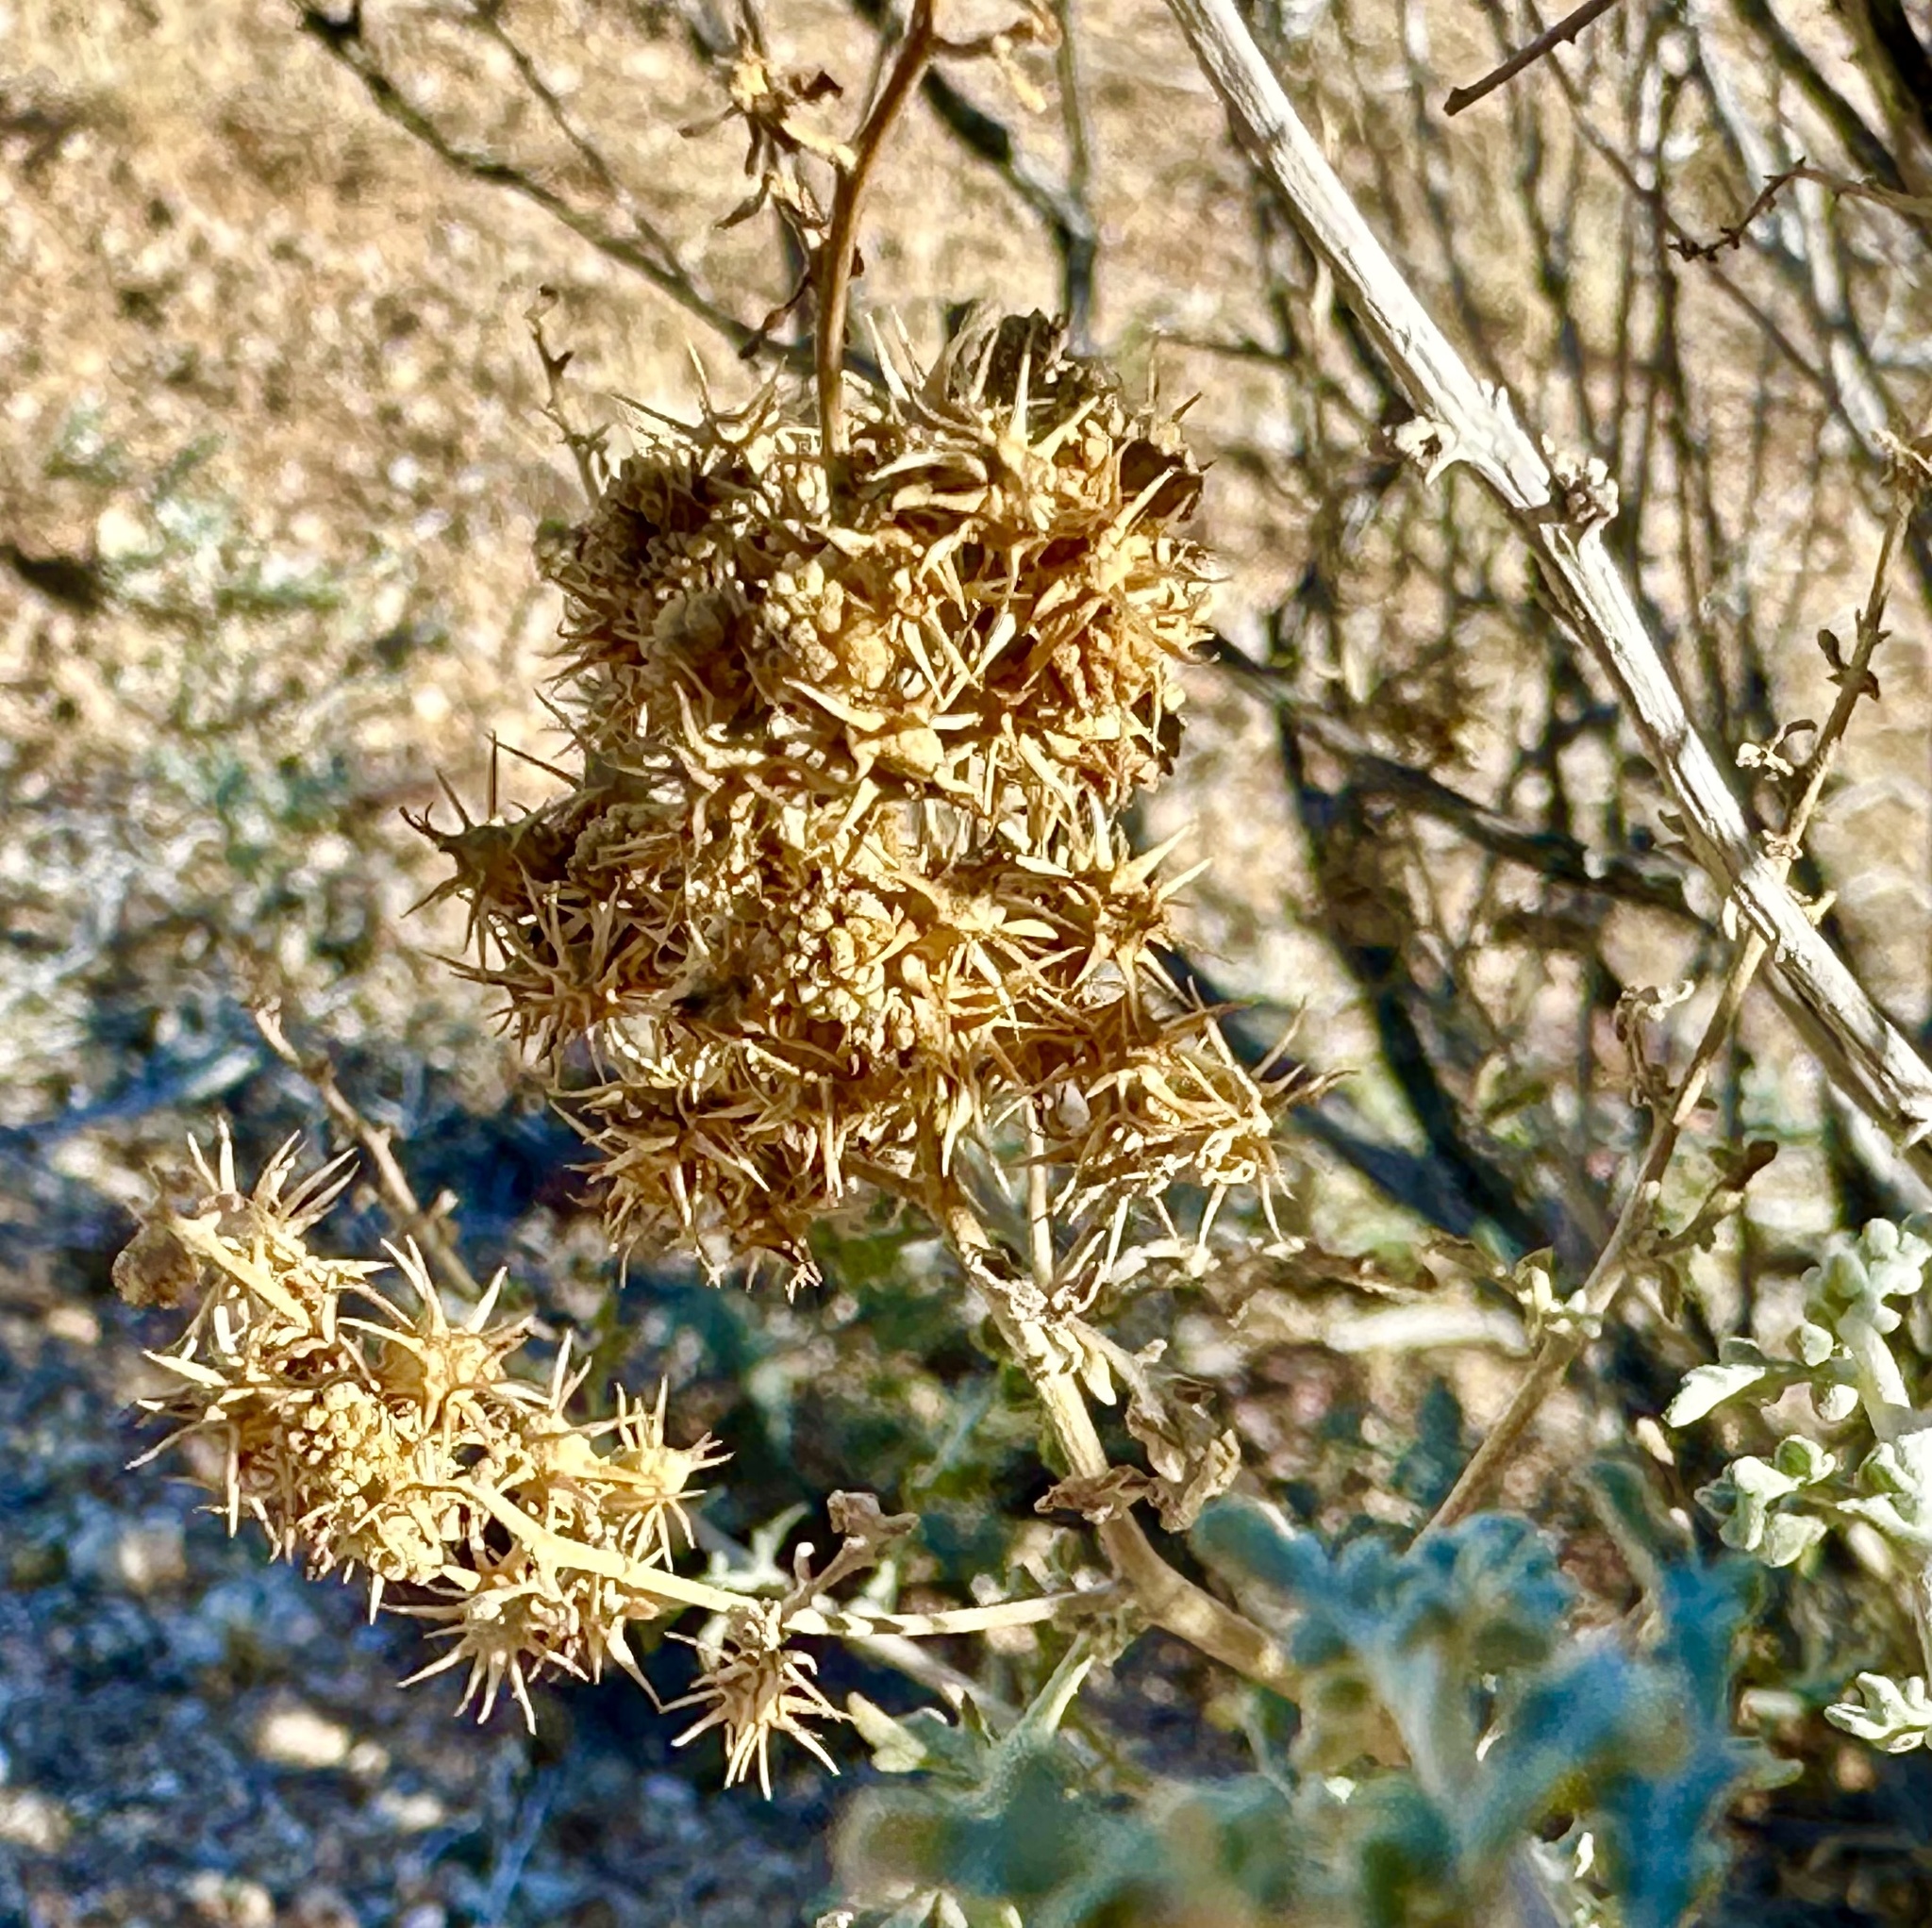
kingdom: Plantae
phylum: Tracheophyta
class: Magnoliopsida
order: Asterales
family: Asteraceae
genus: Ambrosia
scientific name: Ambrosia dumosa
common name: Bur-sage
